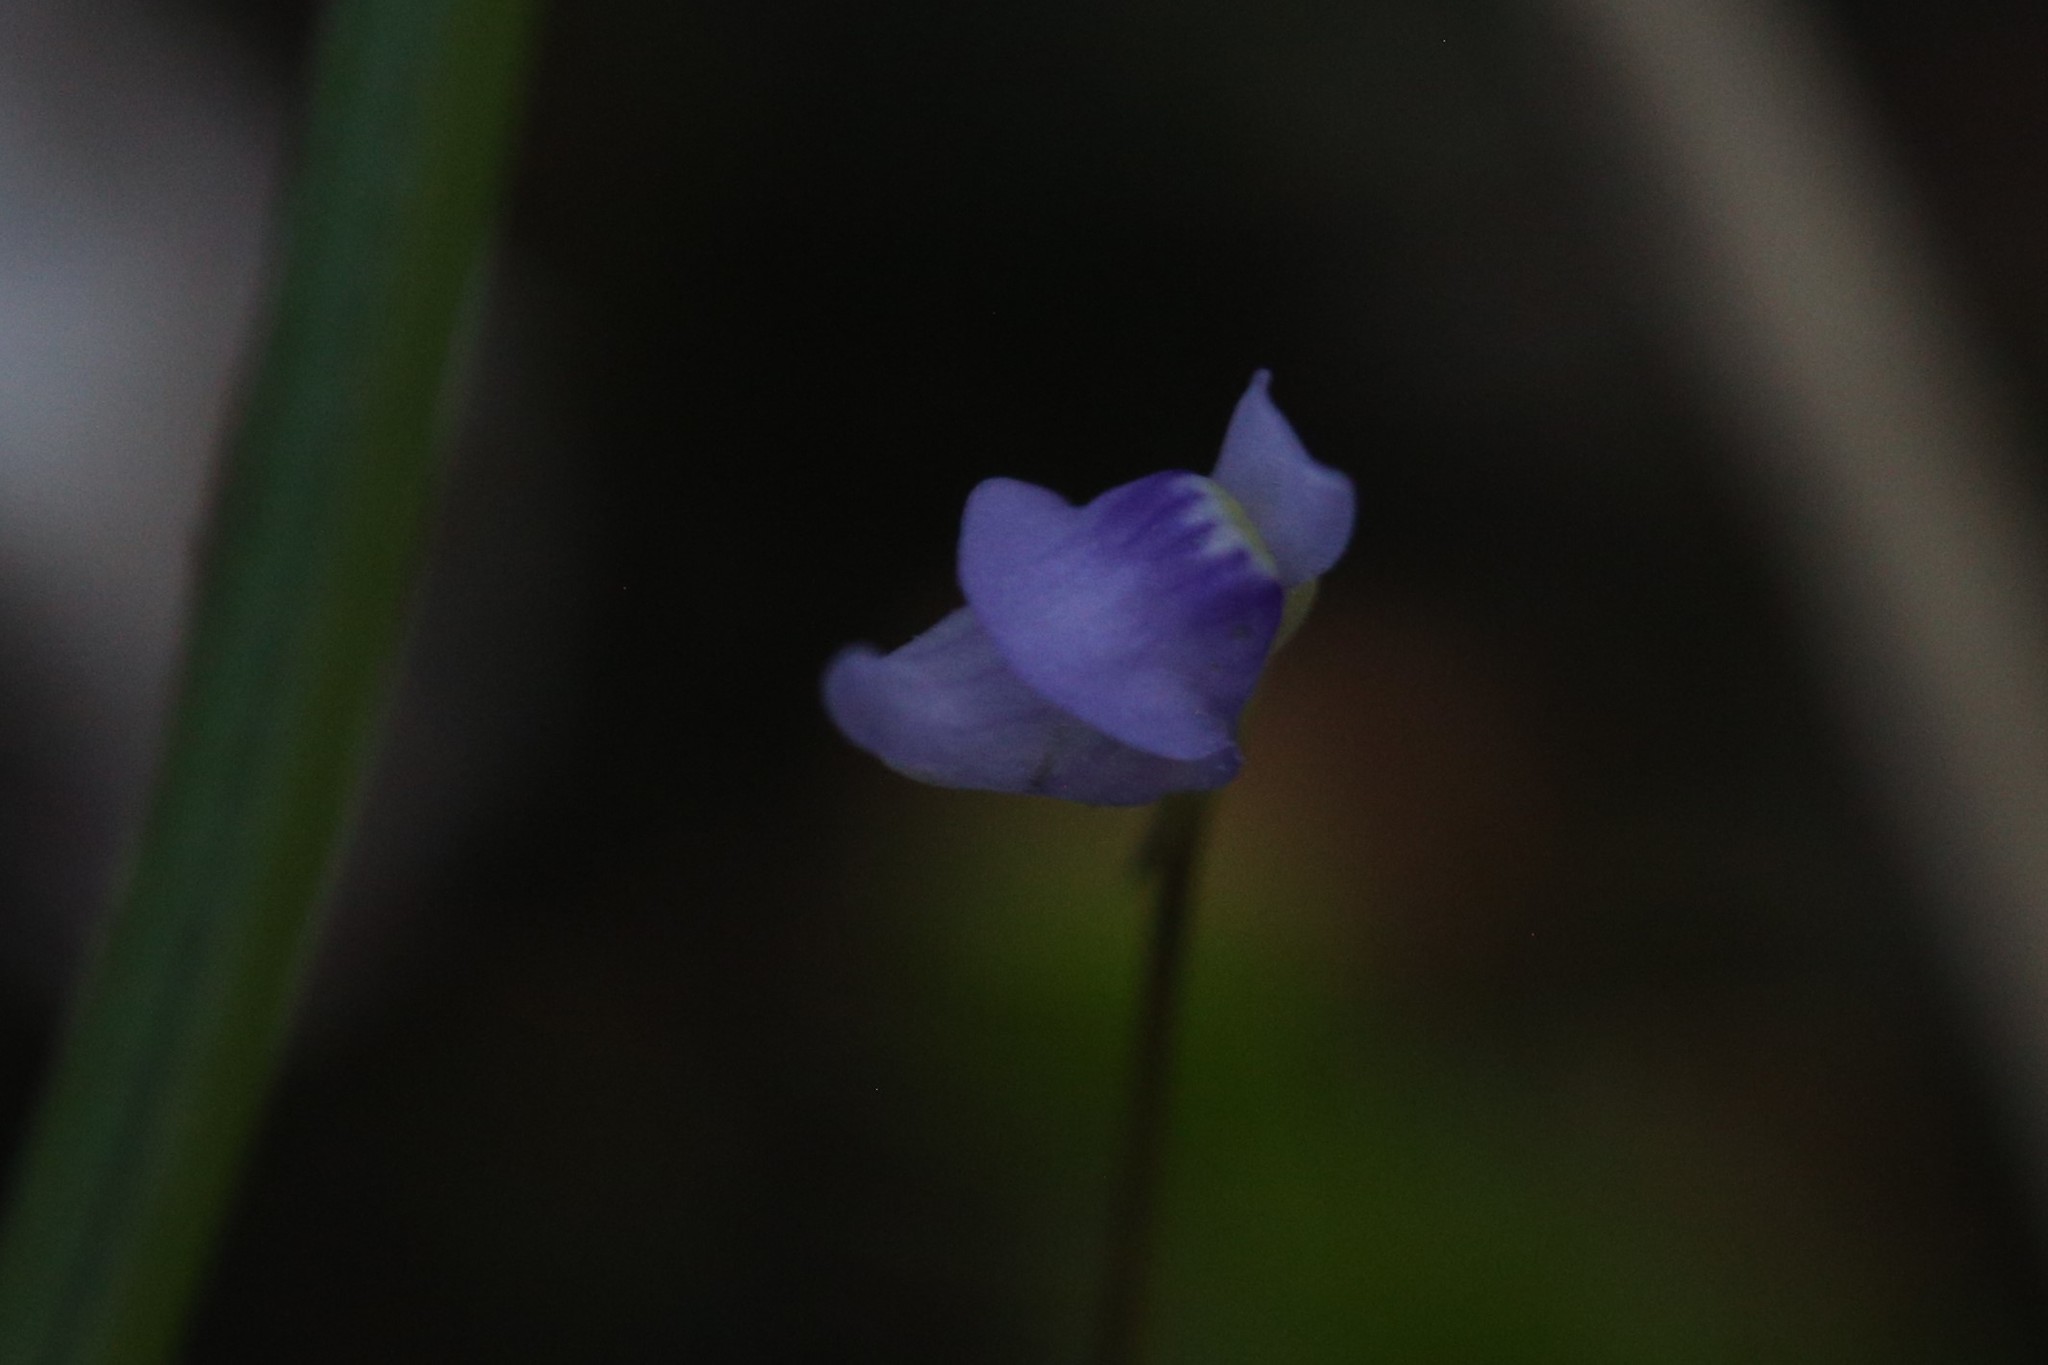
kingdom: Plantae
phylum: Tracheophyta
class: Magnoliopsida
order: Lamiales
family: Lentibulariaceae
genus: Utricularia
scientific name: Utricularia caerulea
